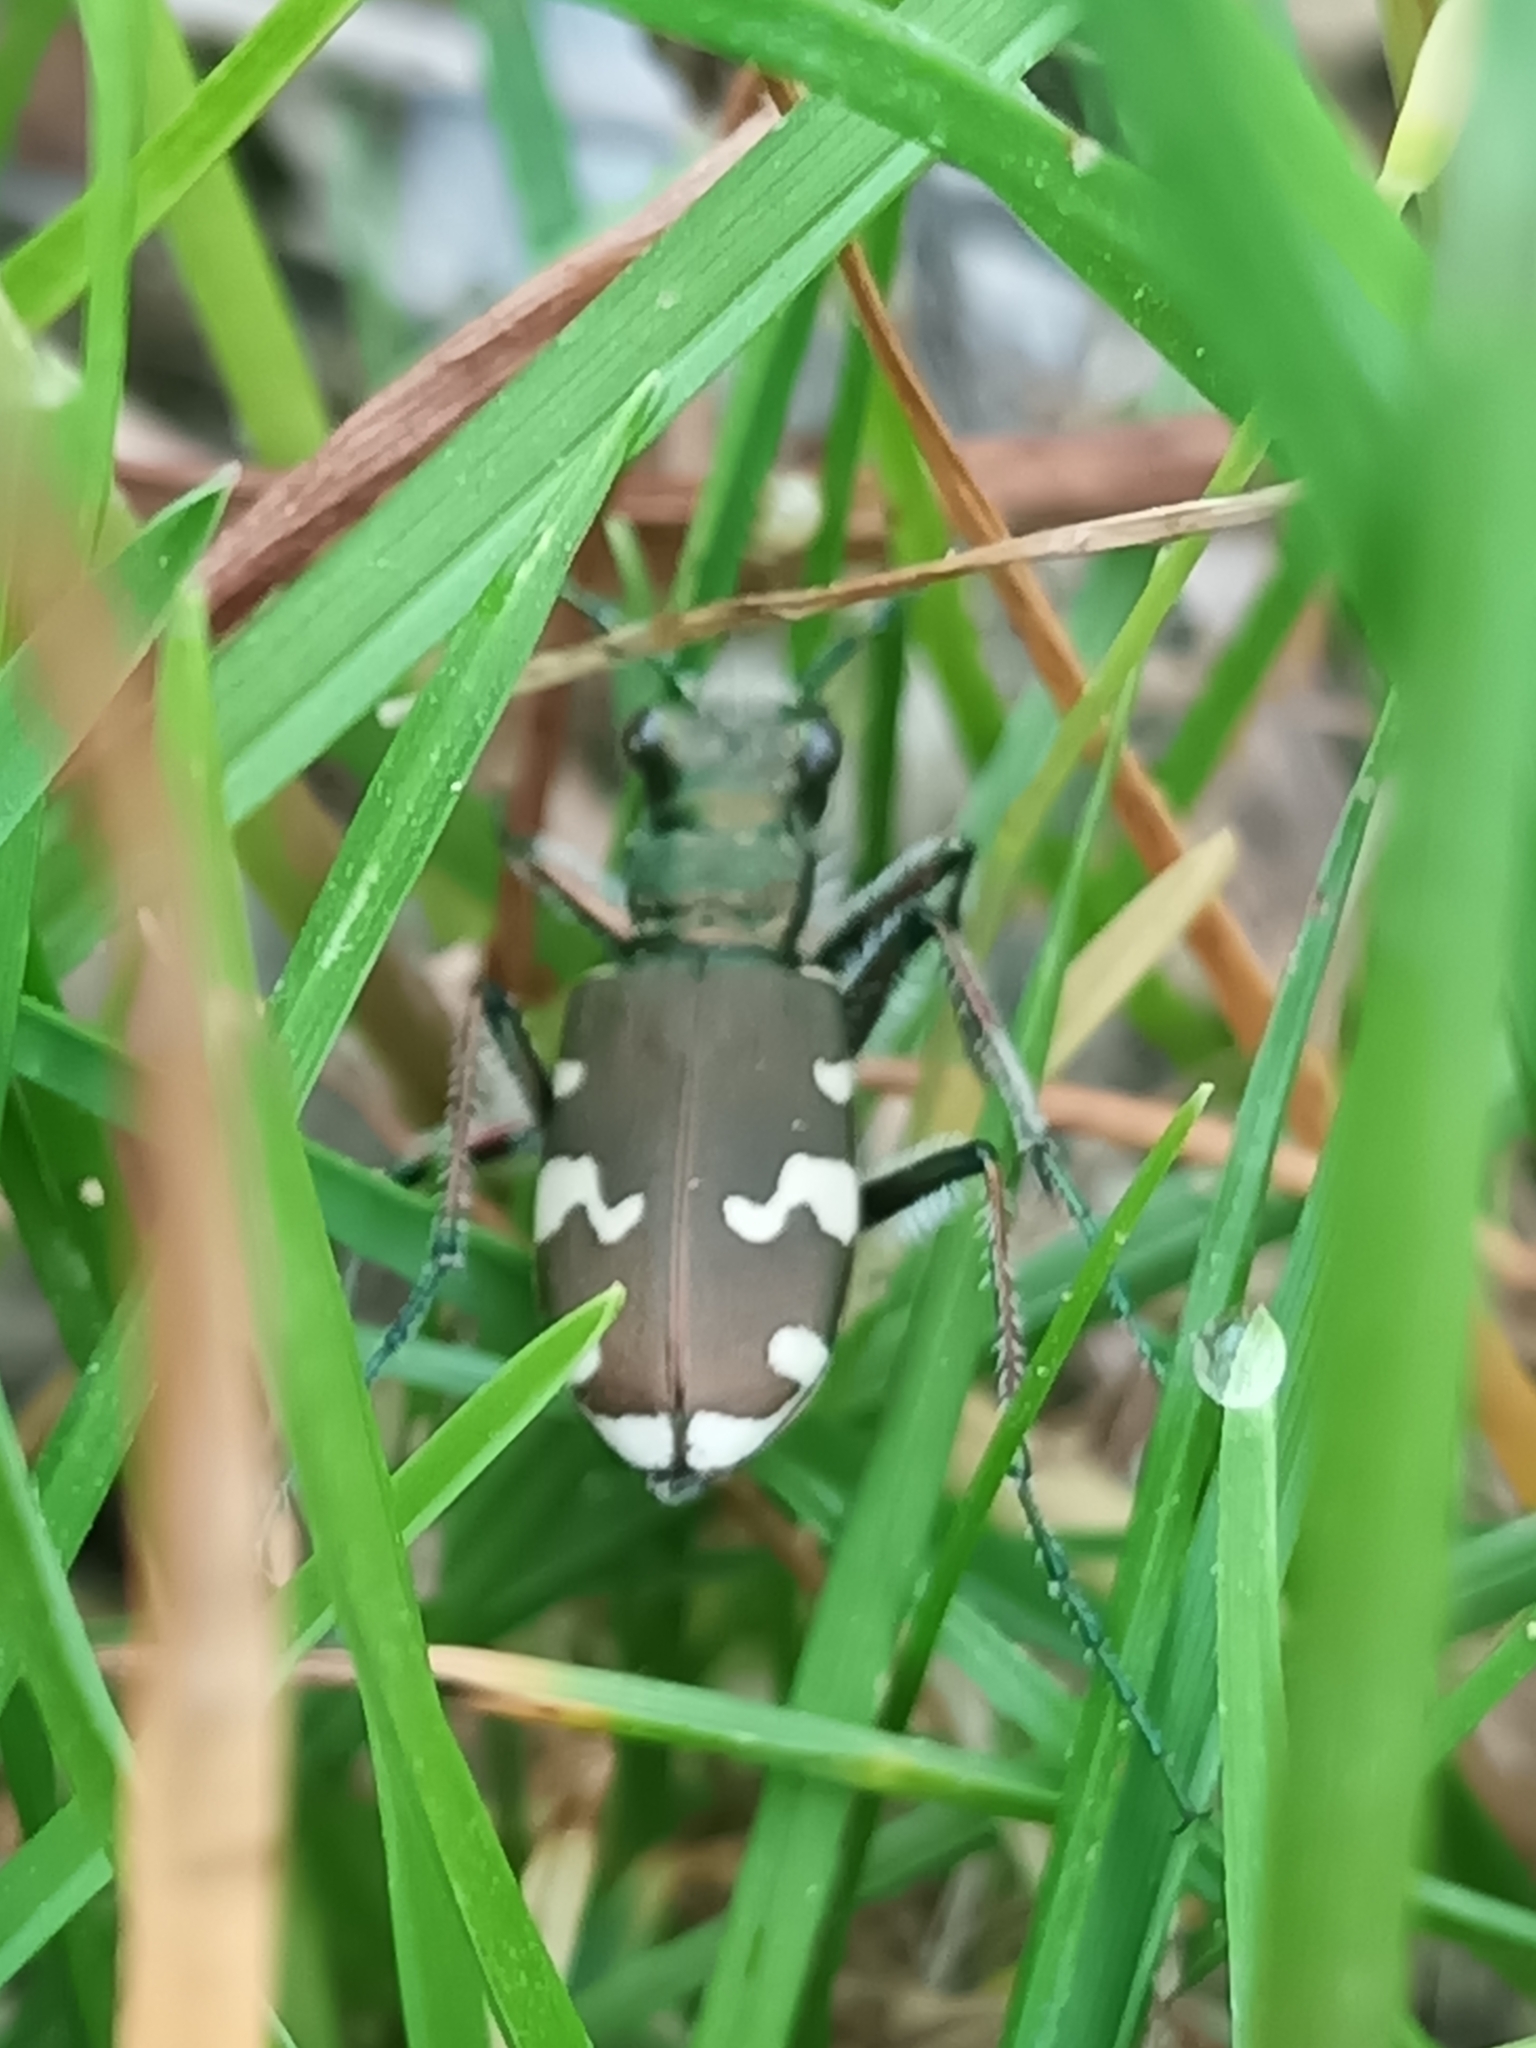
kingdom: Animalia
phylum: Arthropoda
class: Insecta
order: Coleoptera
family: Carabidae
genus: Cicindela
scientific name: Cicindela sylvicola
